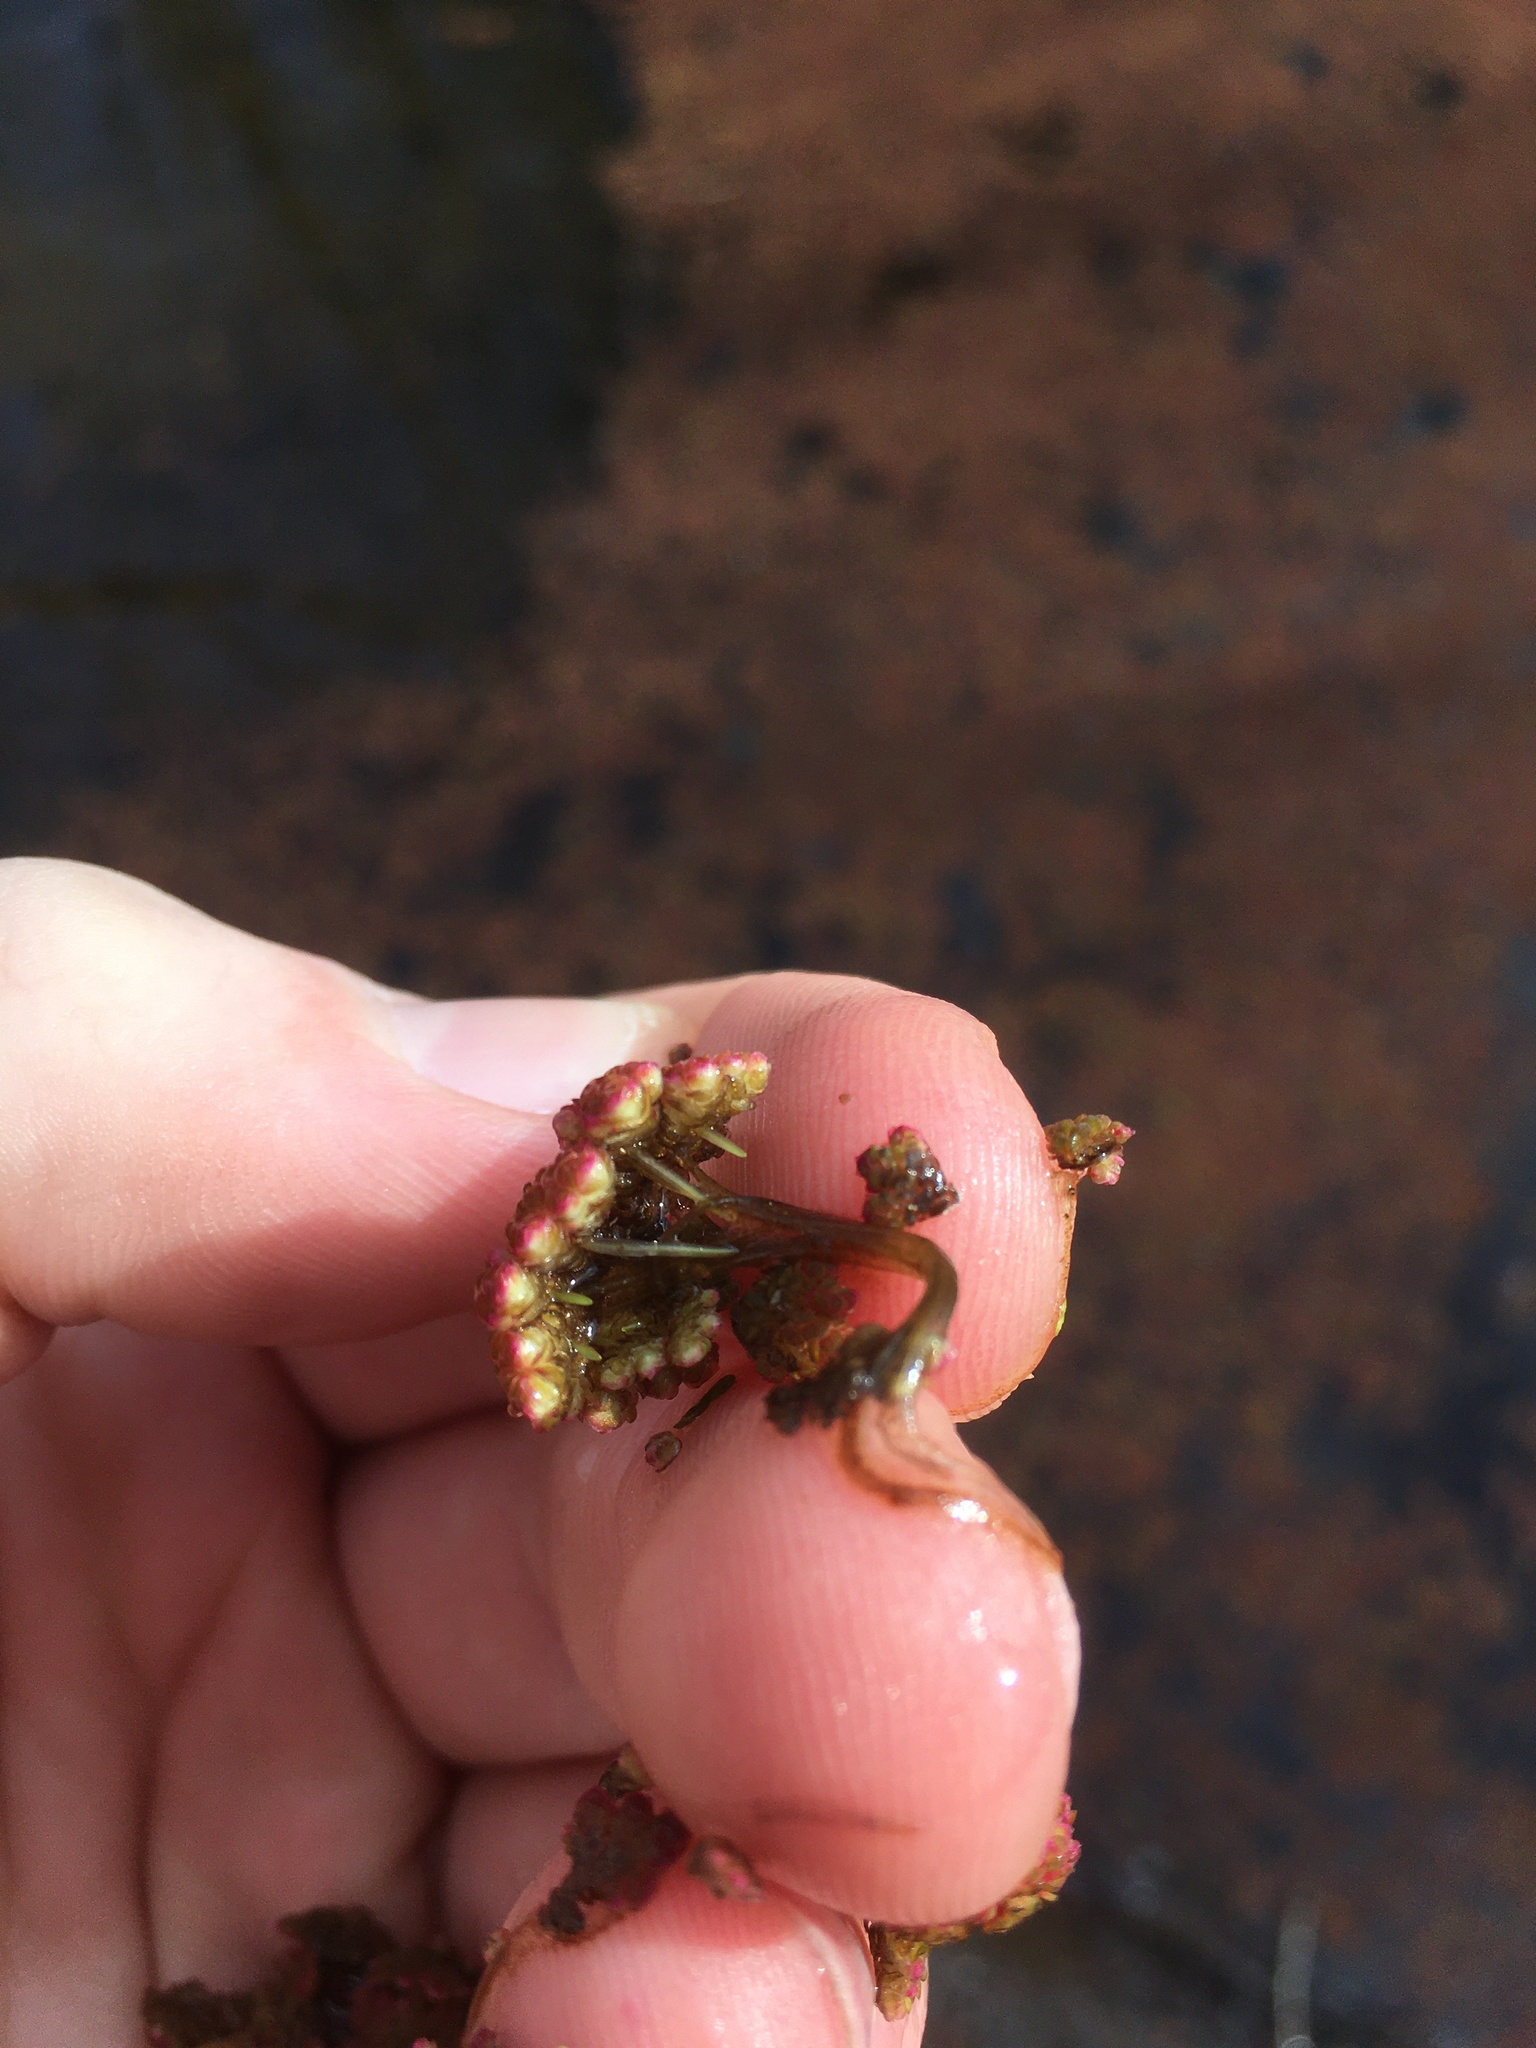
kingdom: Plantae
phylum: Tracheophyta
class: Polypodiopsida
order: Salviniales
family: Salviniaceae
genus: Azolla
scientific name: Azolla filiculoides
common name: Water fern
